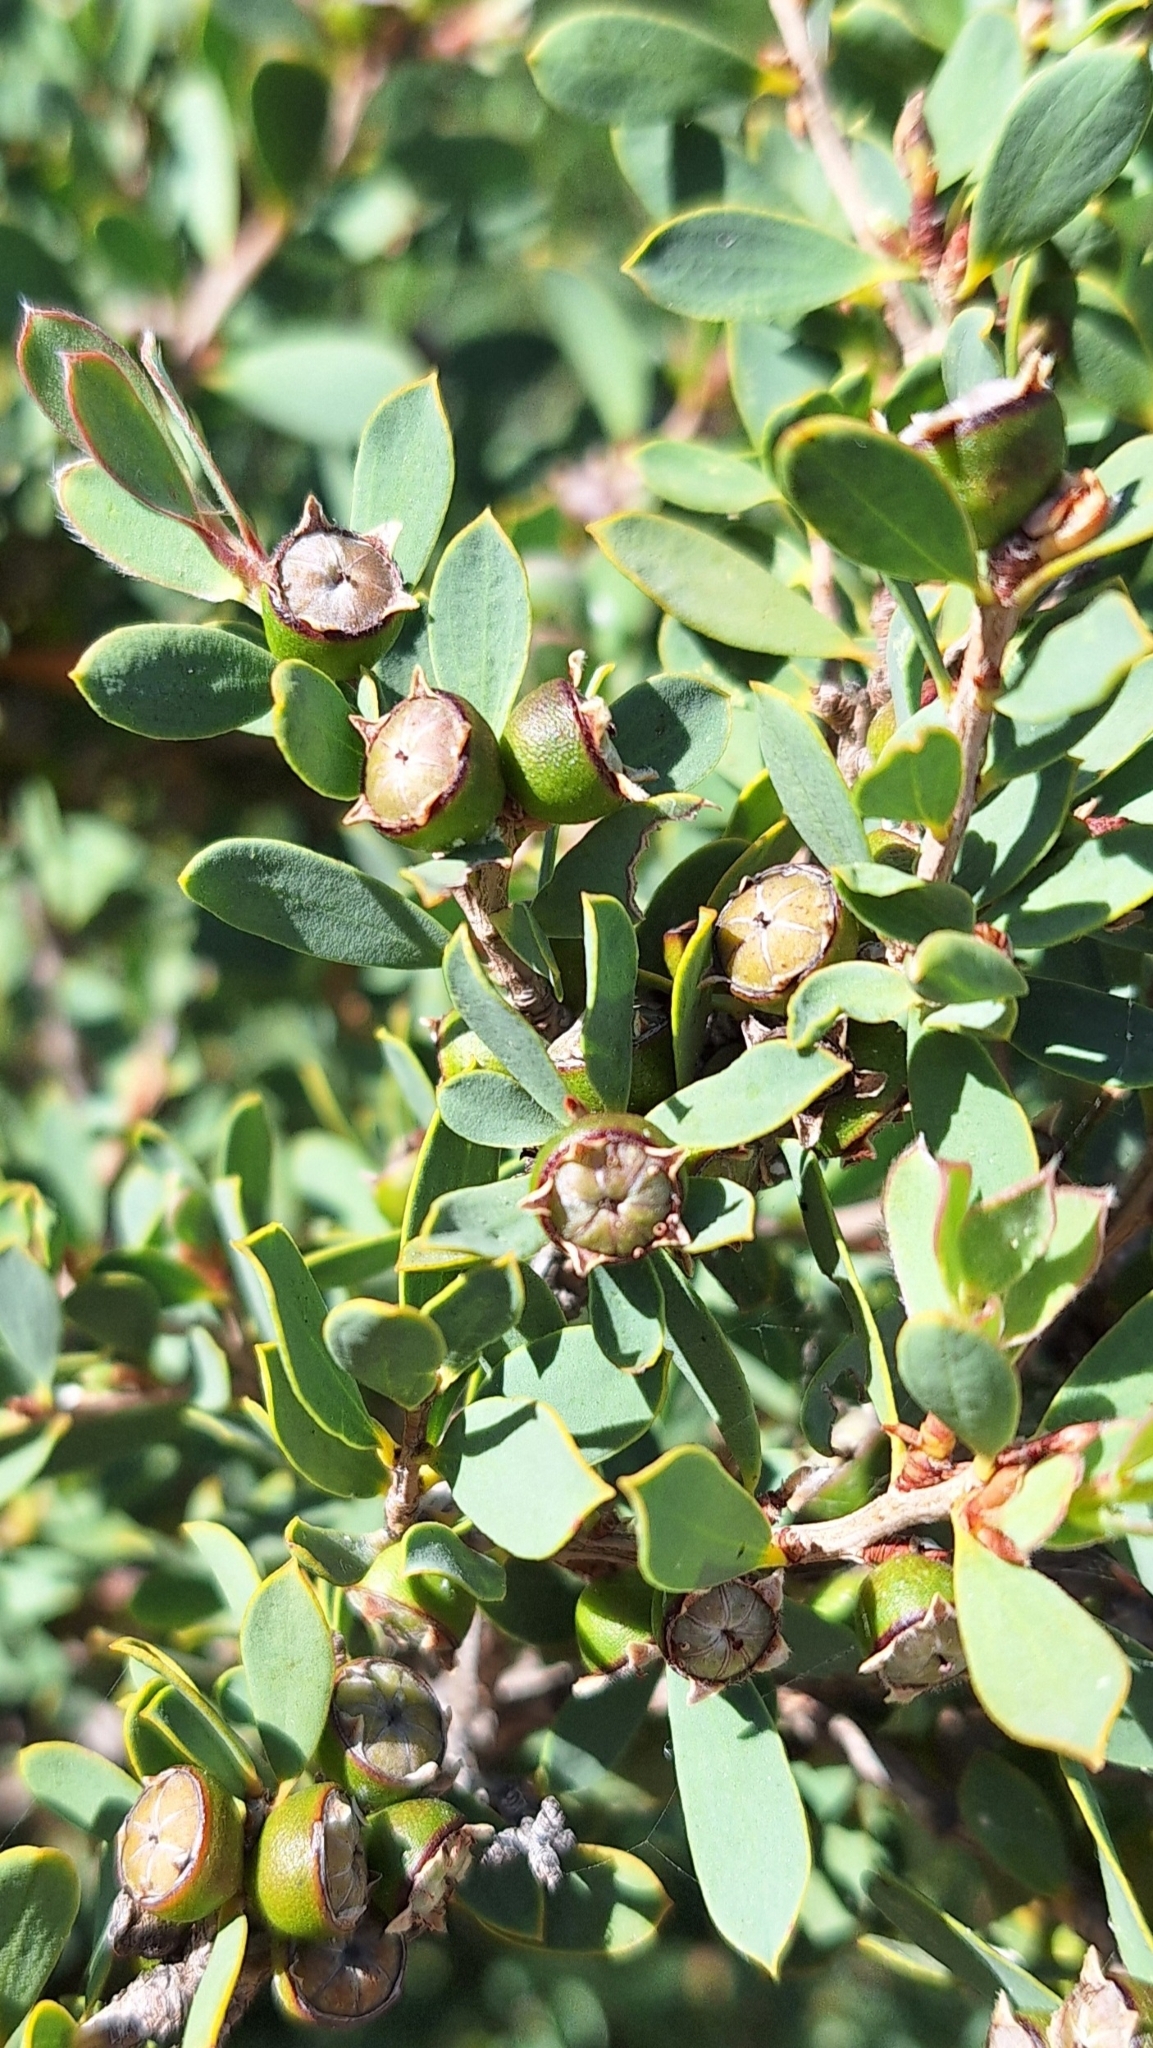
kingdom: Plantae
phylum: Tracheophyta
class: Magnoliopsida
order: Myrtales
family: Myrtaceae
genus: Leptospermum
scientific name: Leptospermum laevigatum
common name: Australian teatree
